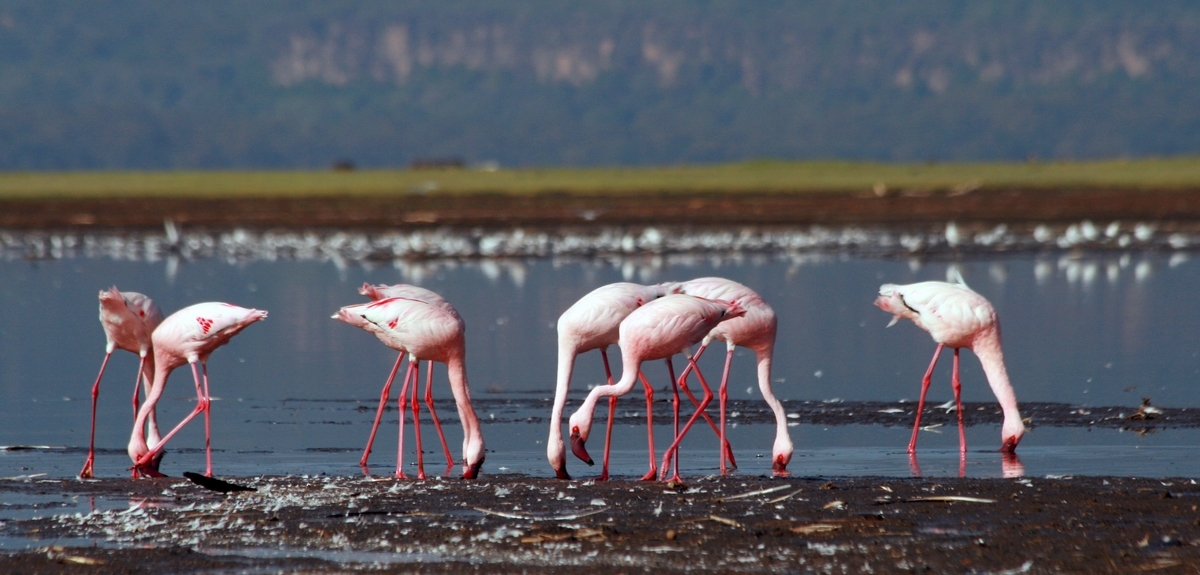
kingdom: Animalia
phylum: Chordata
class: Aves
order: Phoenicopteriformes
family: Phoenicopteridae
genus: Phoeniconaias
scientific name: Phoeniconaias minor
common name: Lesser flamingo
